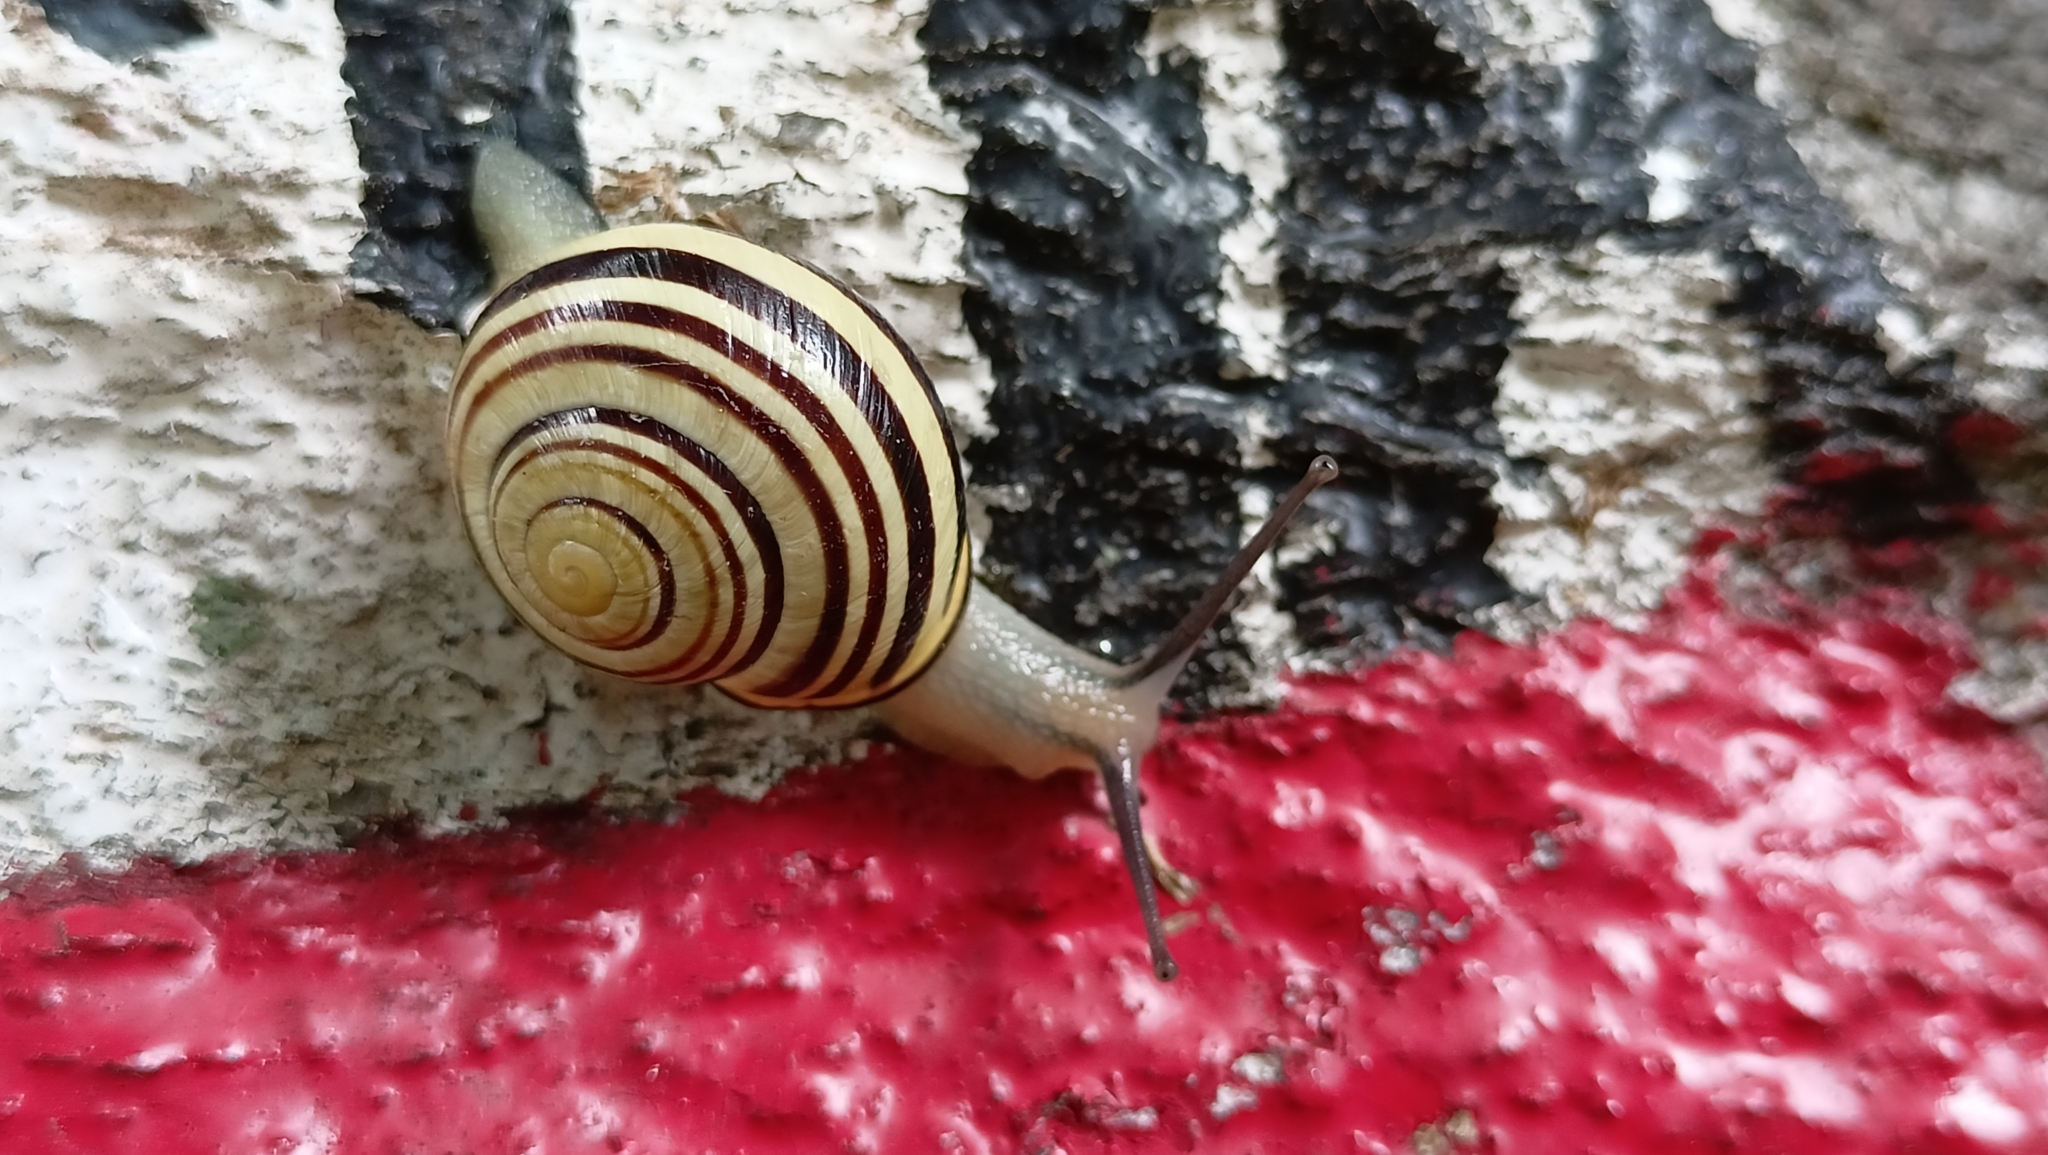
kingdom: Animalia
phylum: Mollusca
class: Gastropoda
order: Stylommatophora
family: Helicidae
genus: Cepaea
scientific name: Cepaea nemoralis
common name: Grovesnail
